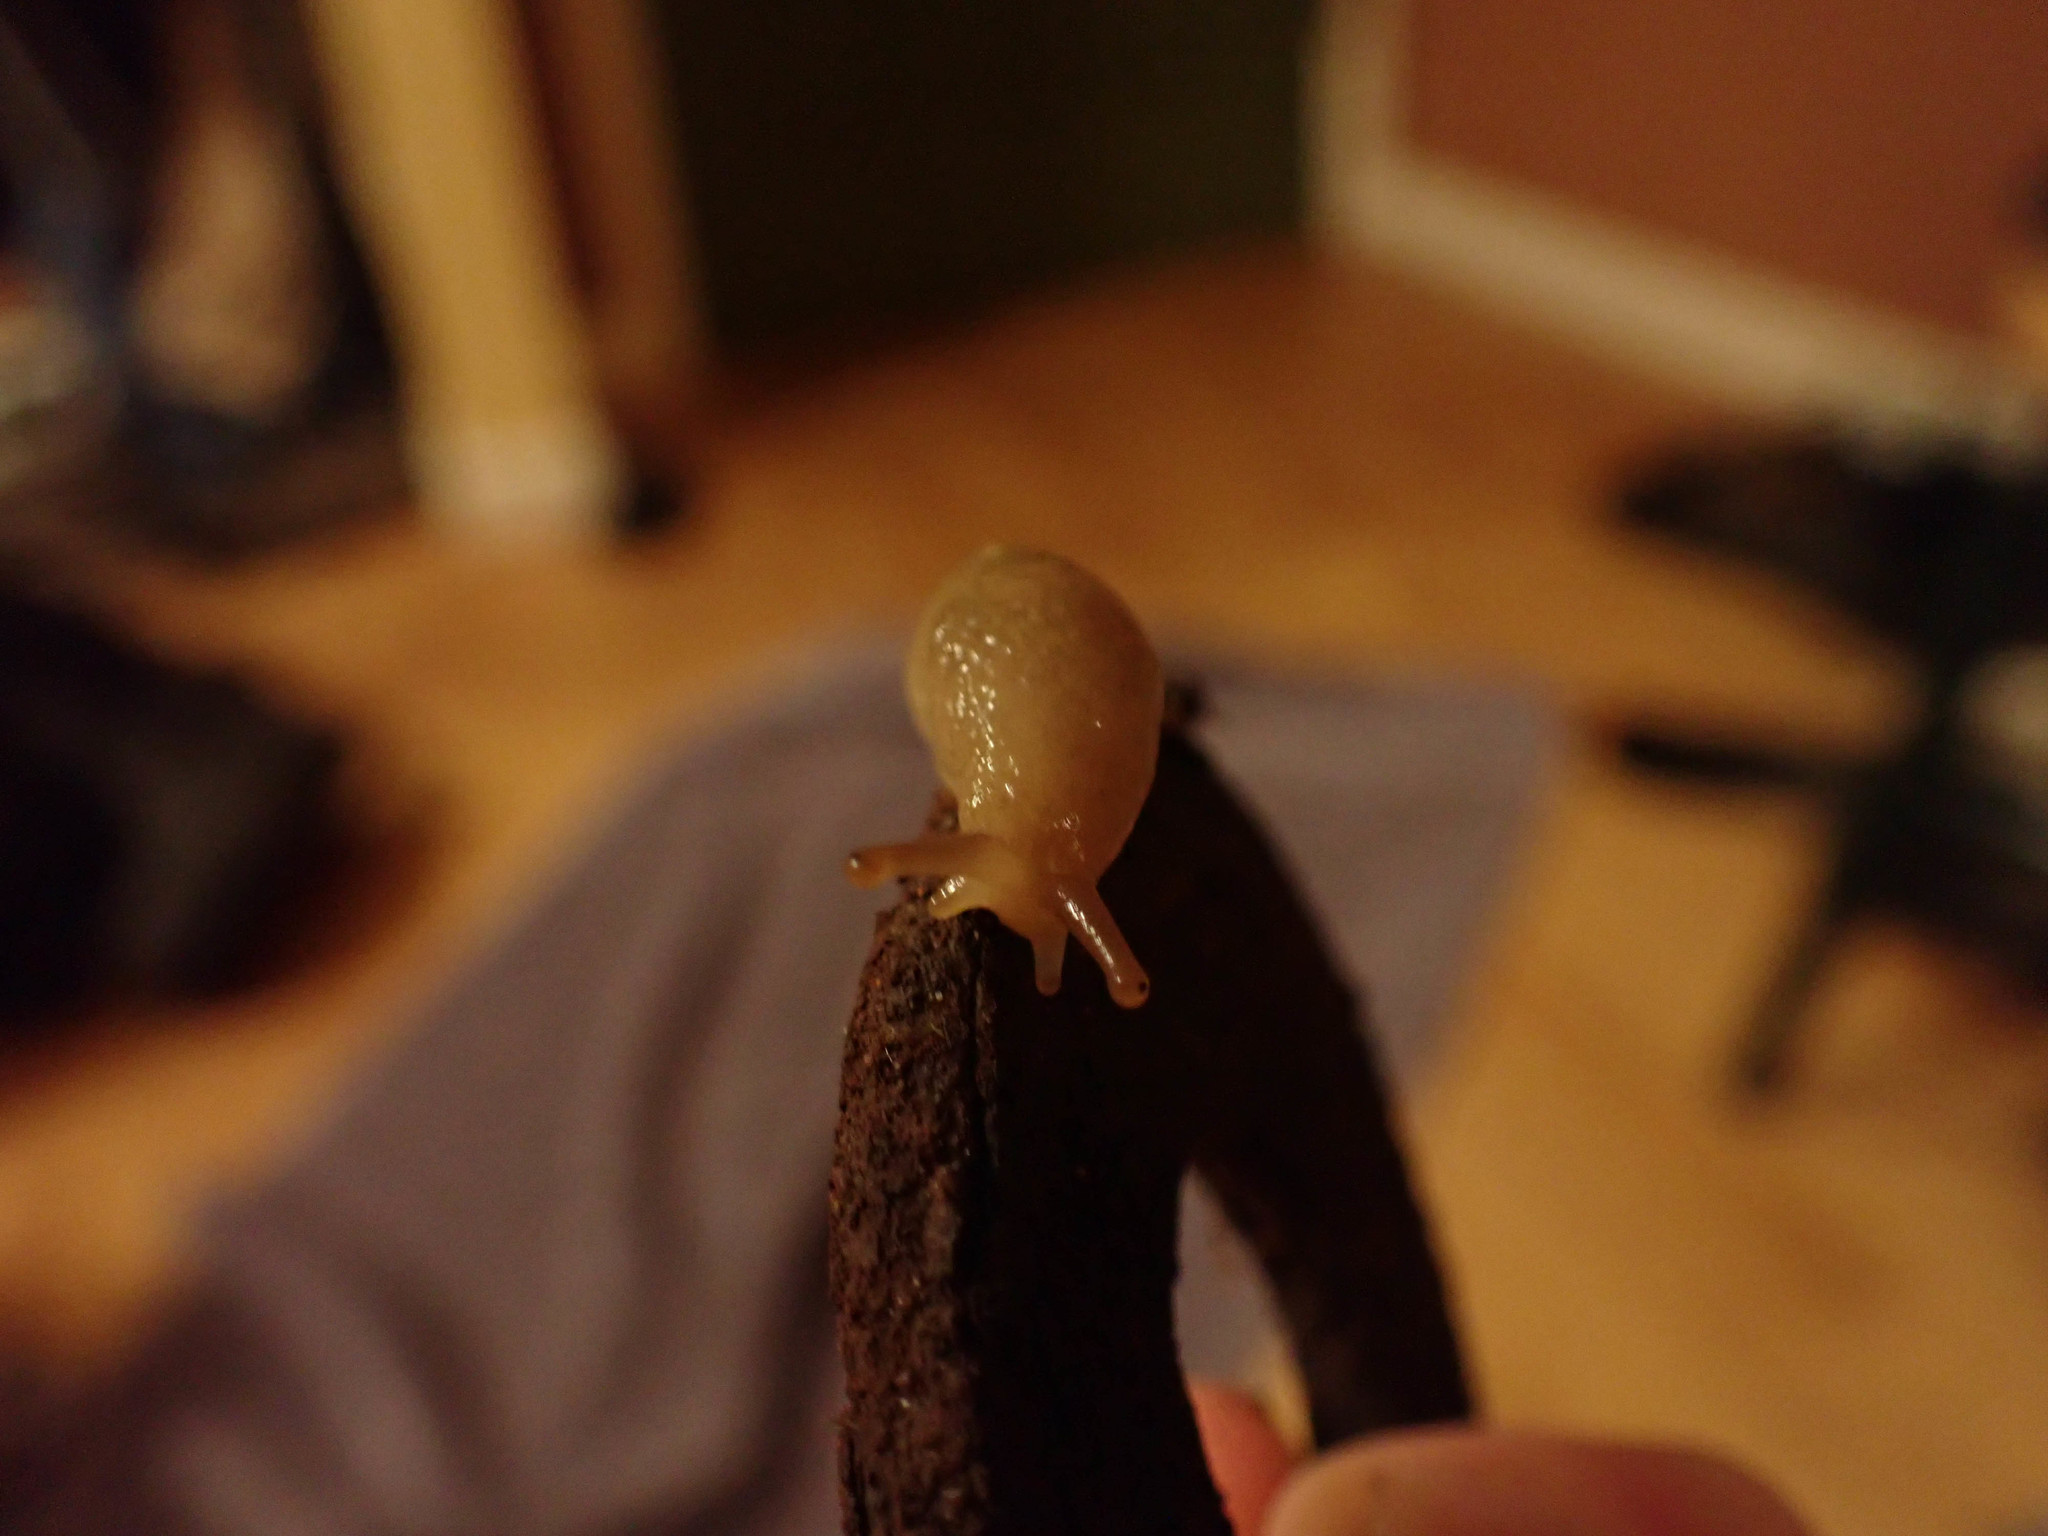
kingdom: Animalia
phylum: Mollusca
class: Gastropoda
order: Stylommatophora
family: Ariolimacidae
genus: Ariolimax
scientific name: Ariolimax columbianus
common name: Pacific banana slug
